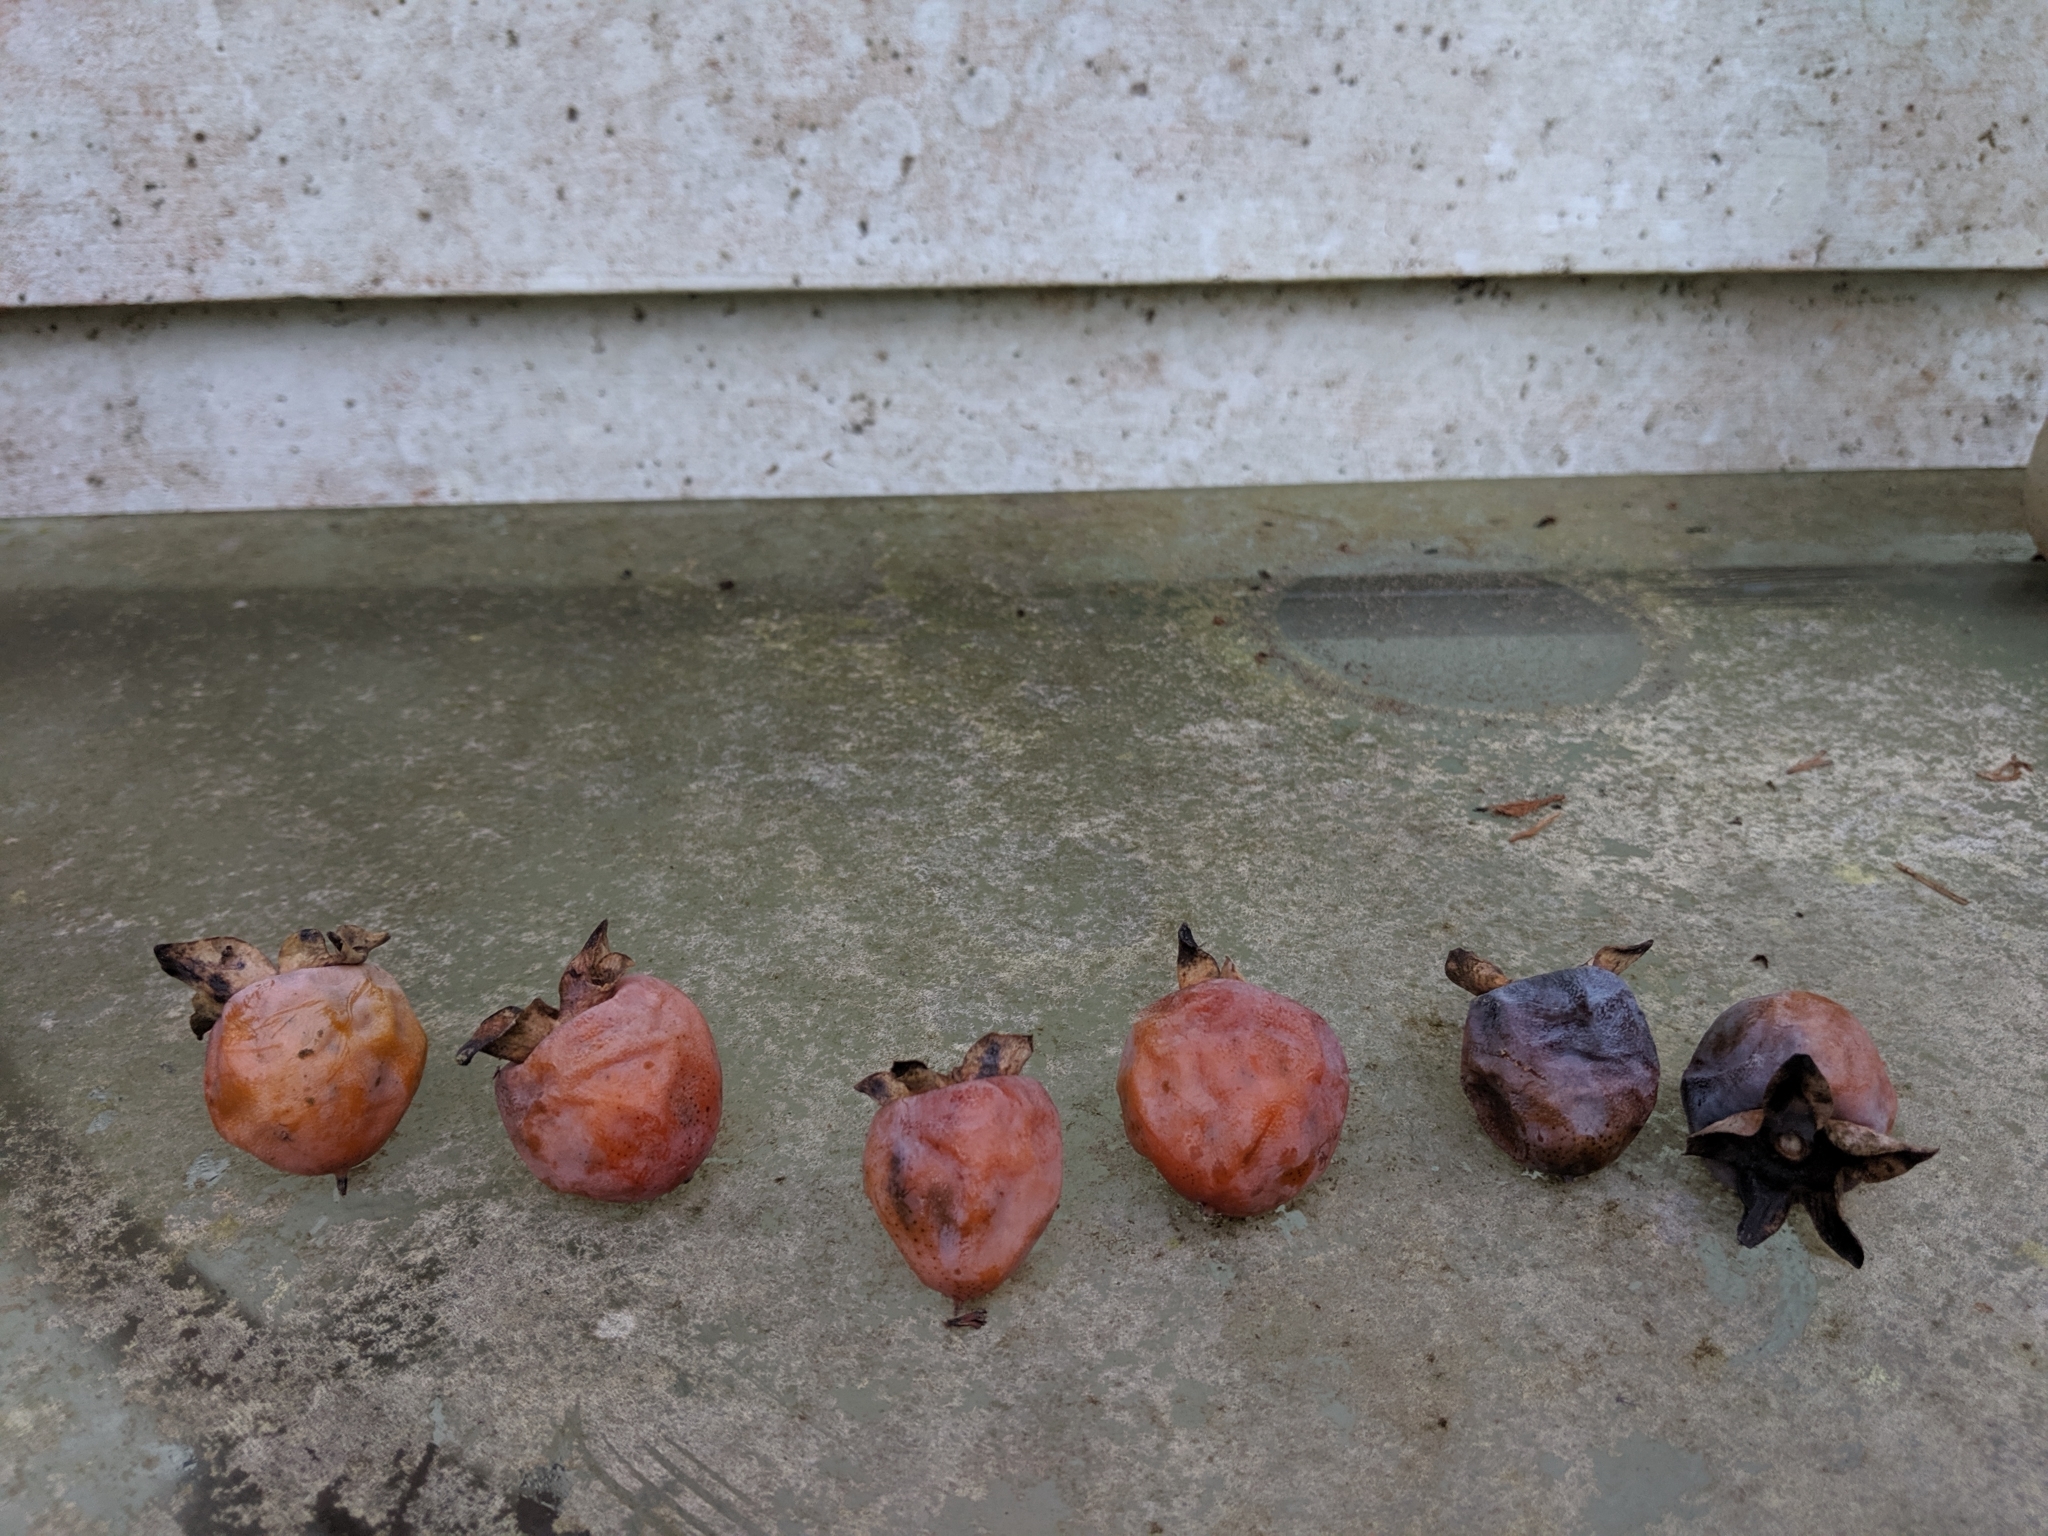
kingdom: Plantae
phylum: Tracheophyta
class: Magnoliopsida
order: Ericales
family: Ebenaceae
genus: Diospyros
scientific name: Diospyros virginiana
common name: Persimmon
